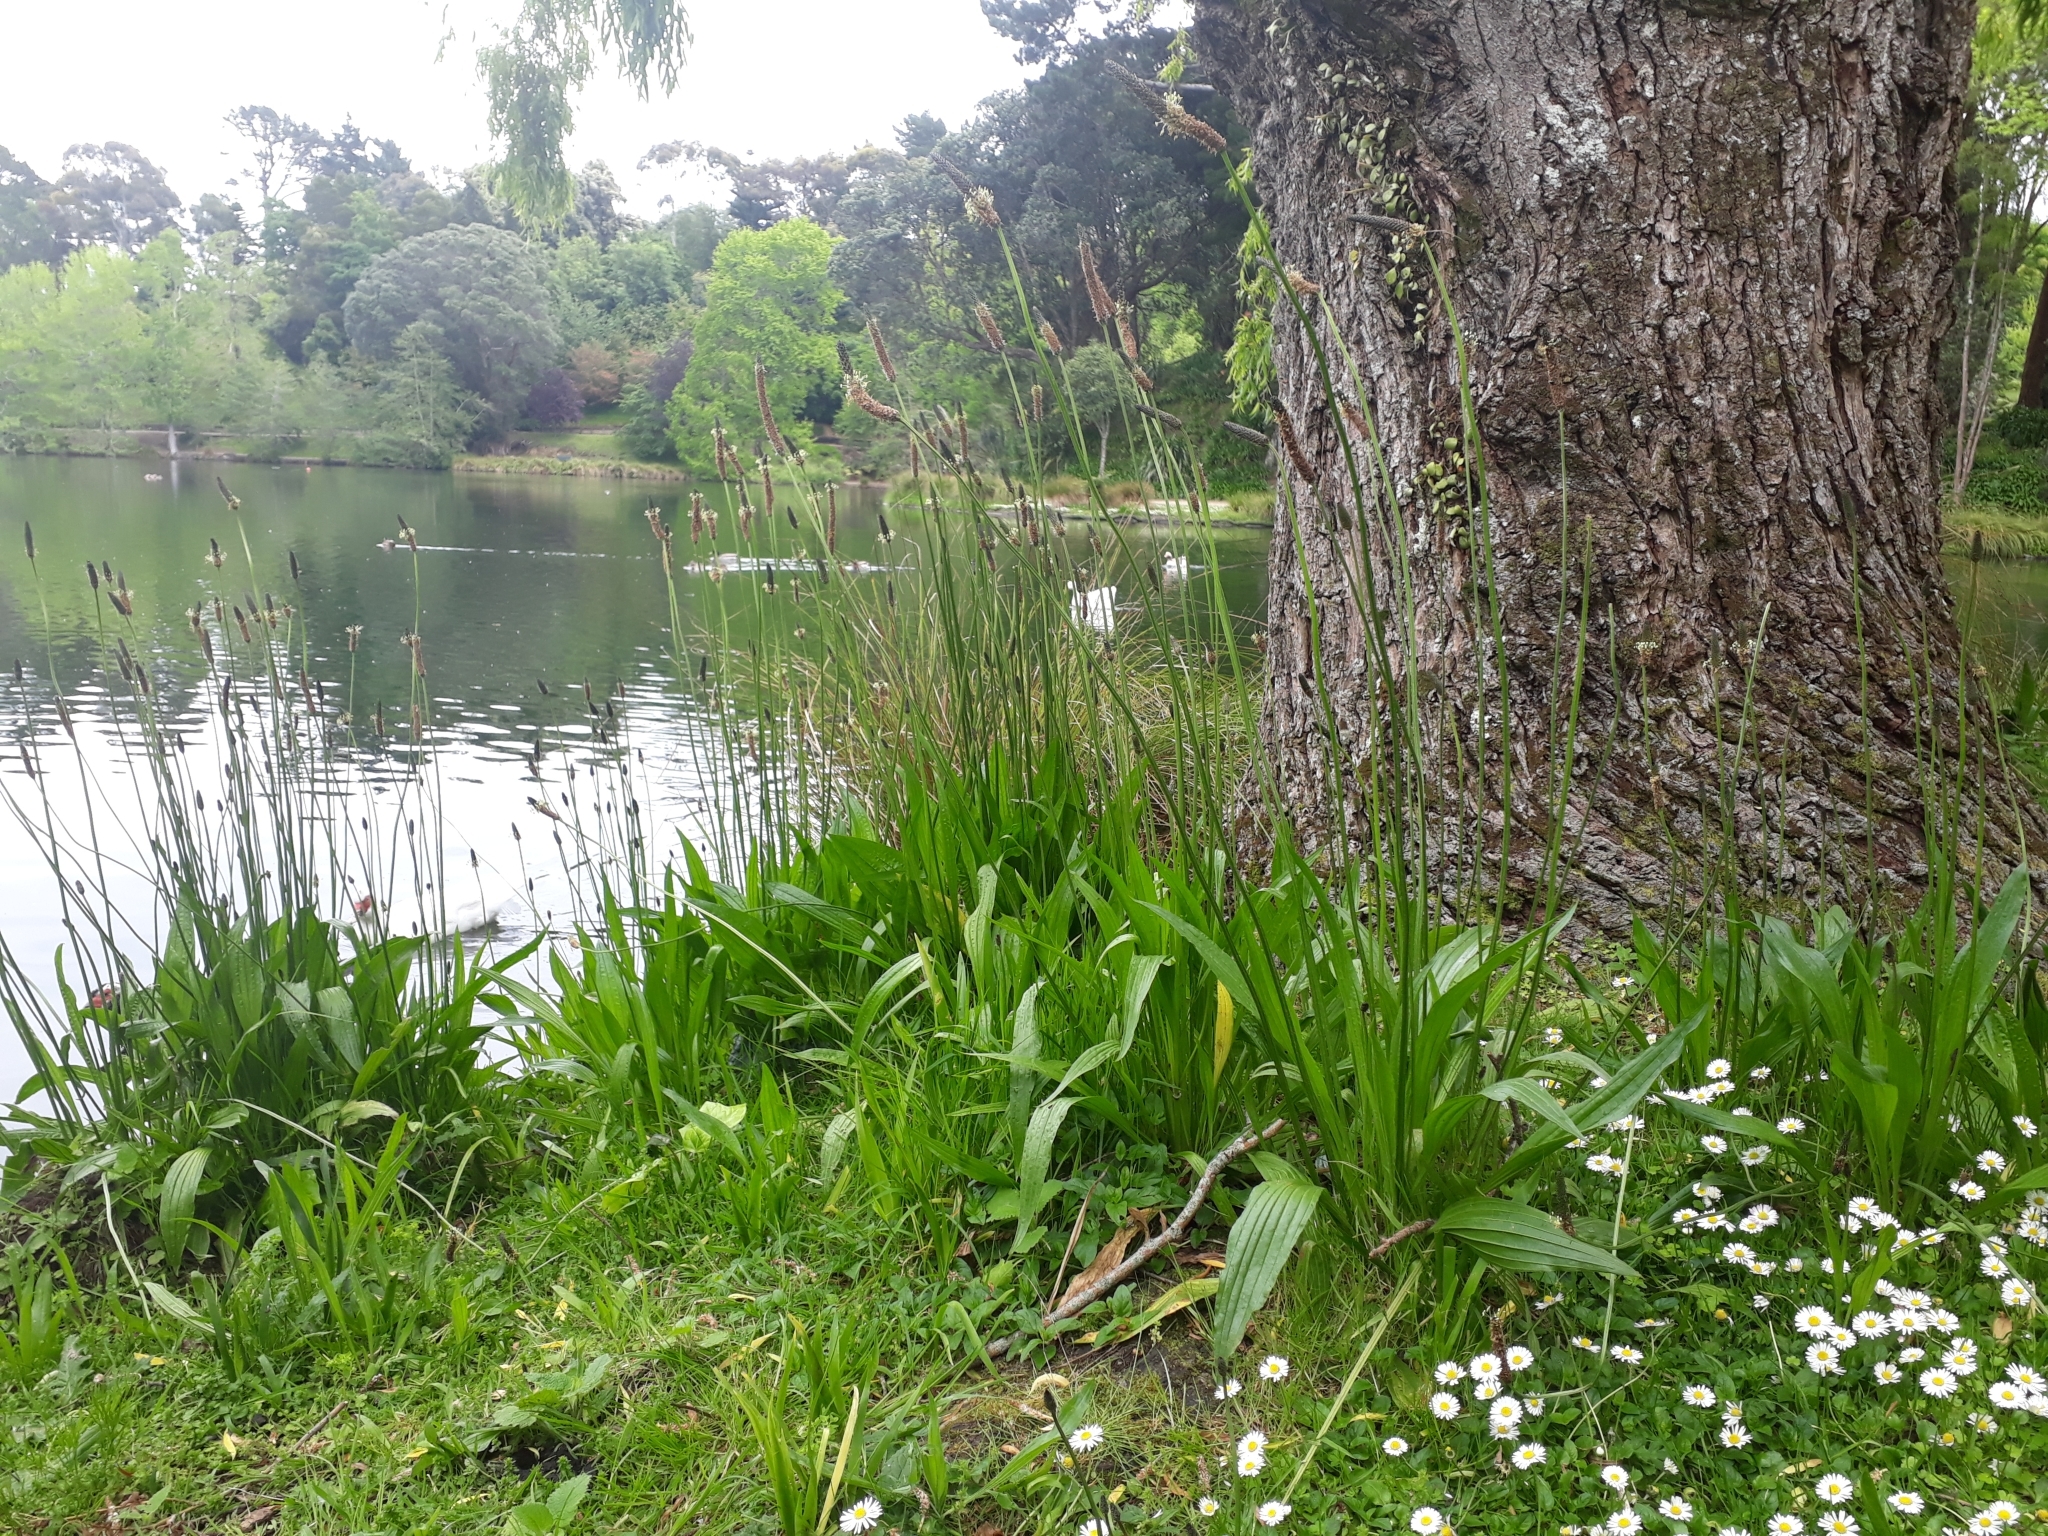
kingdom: Plantae
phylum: Tracheophyta
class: Magnoliopsida
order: Lamiales
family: Plantaginaceae
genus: Plantago
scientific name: Plantago lanceolata
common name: Ribwort plantain
